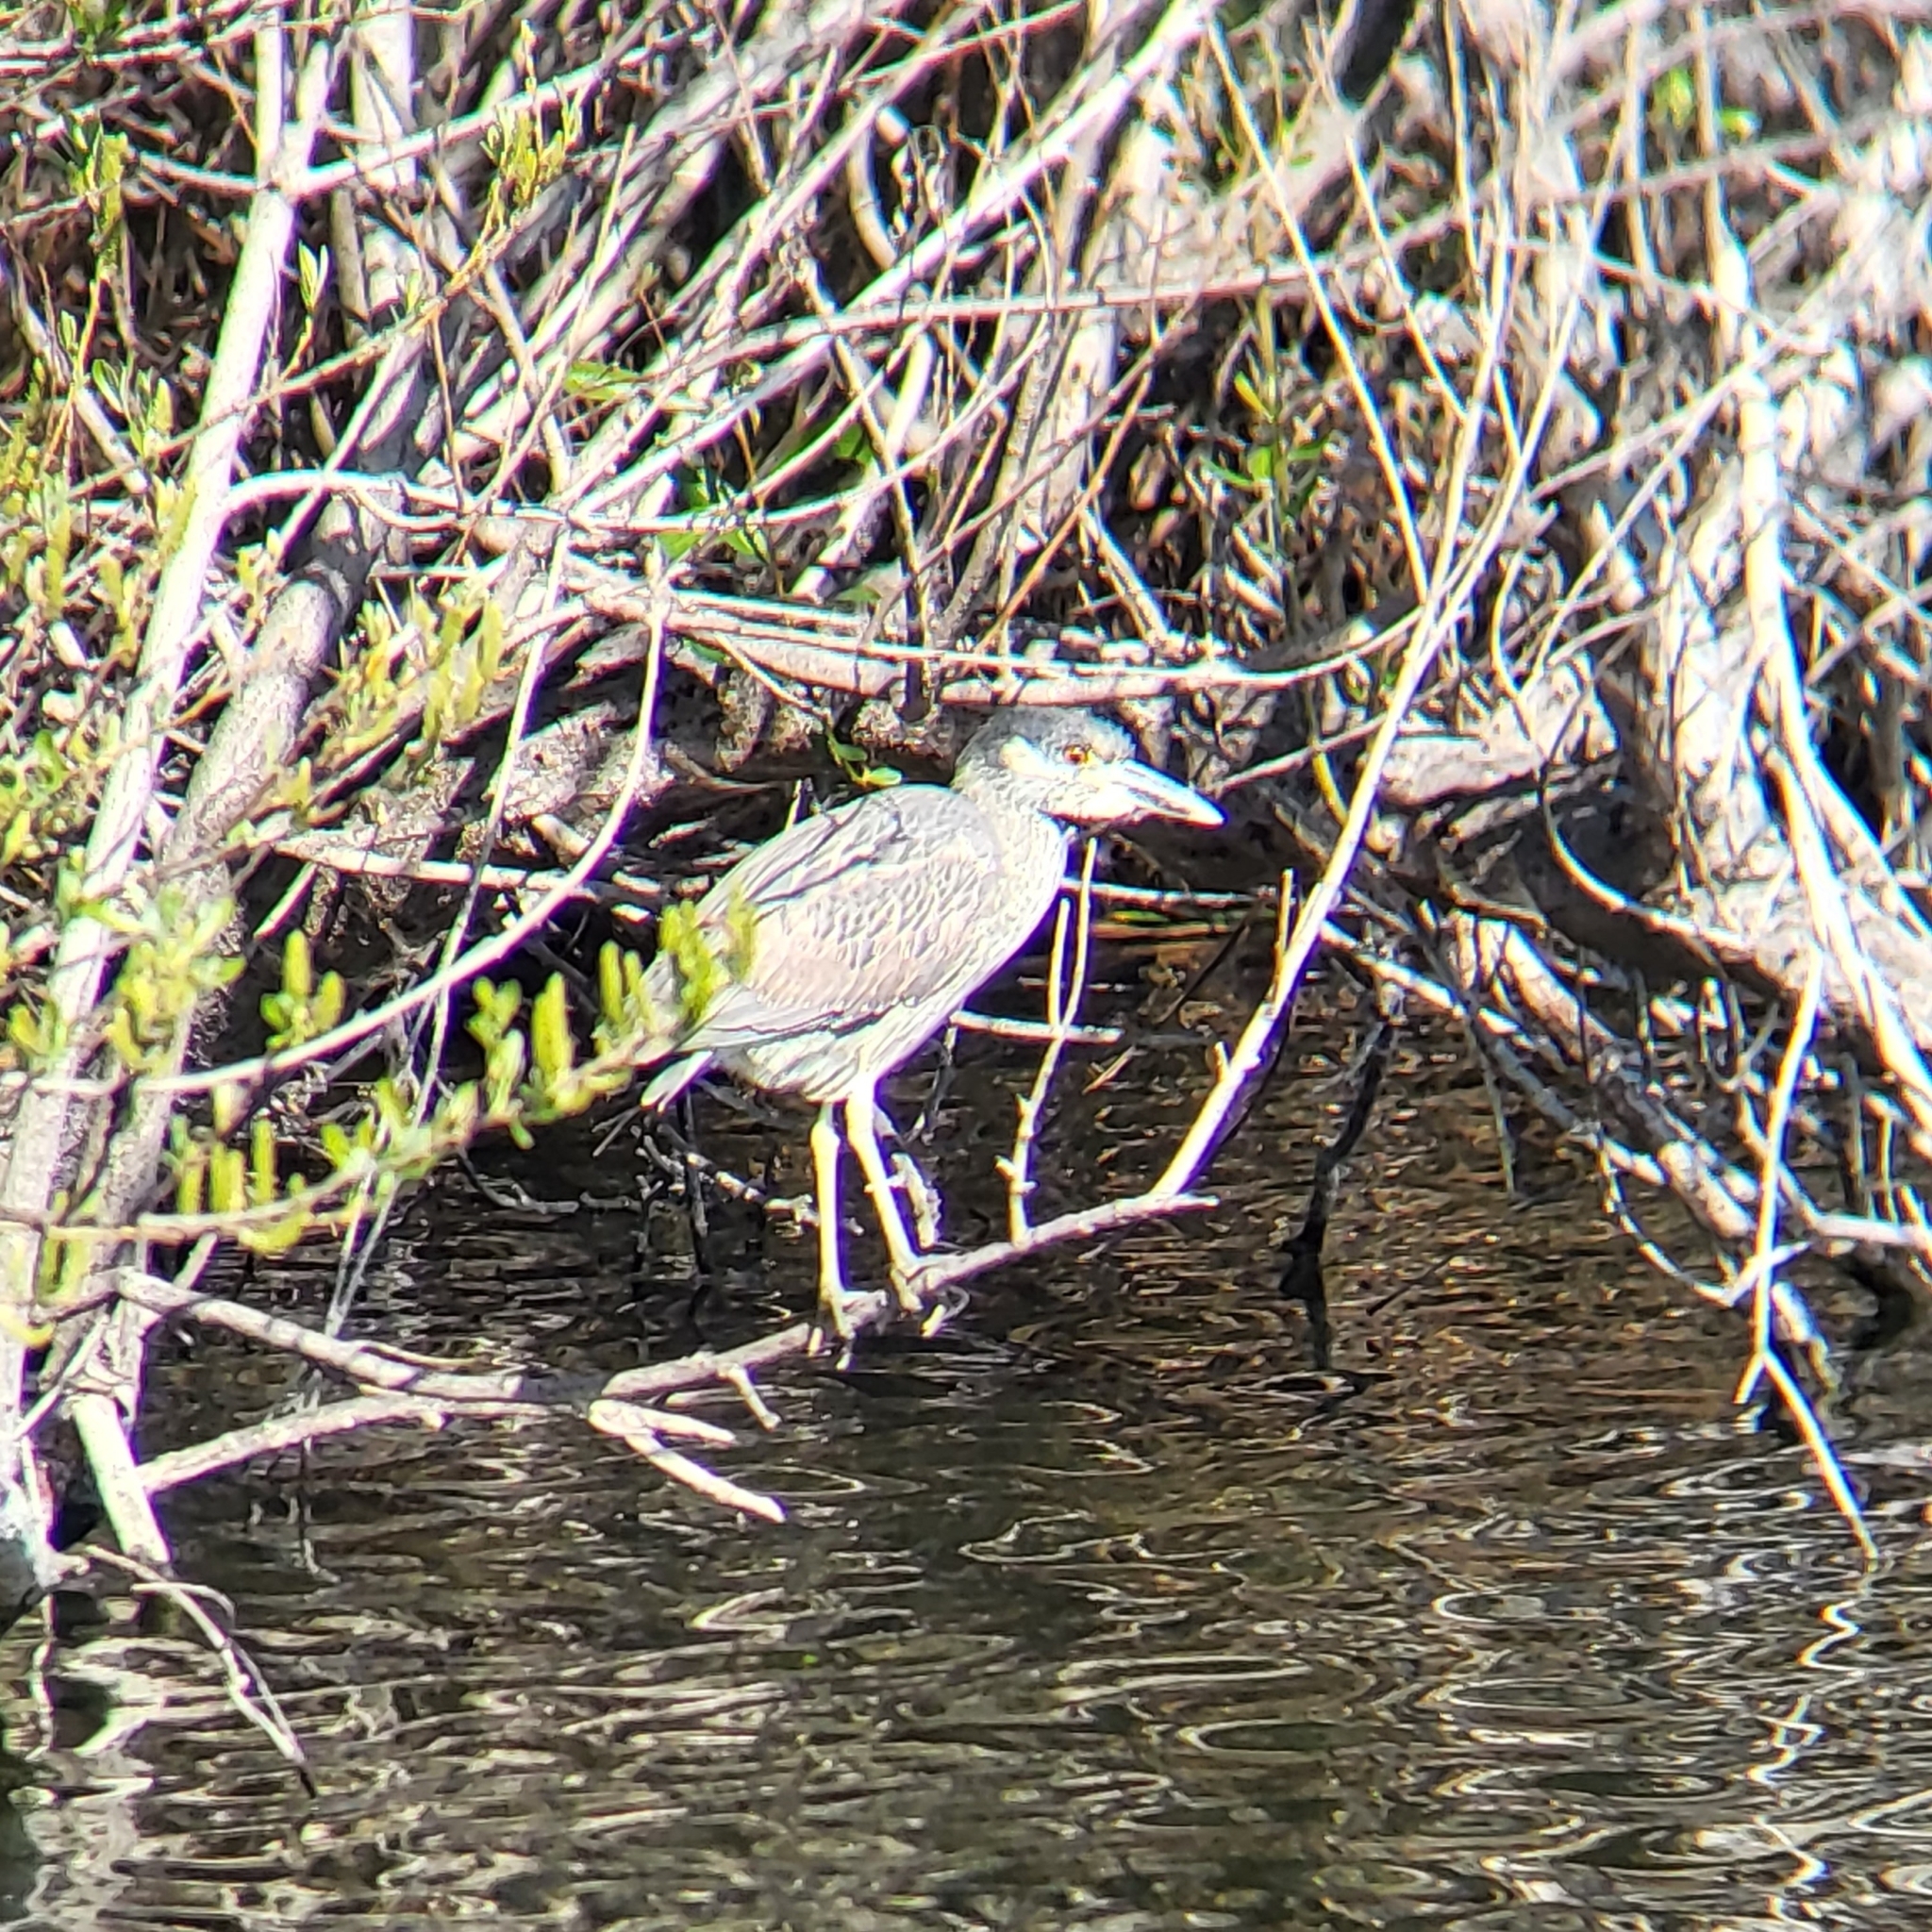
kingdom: Animalia
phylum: Chordata
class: Aves
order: Pelecaniformes
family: Ardeidae
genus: Nyctanassa
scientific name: Nyctanassa violacea
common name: Yellow-crowned night heron
